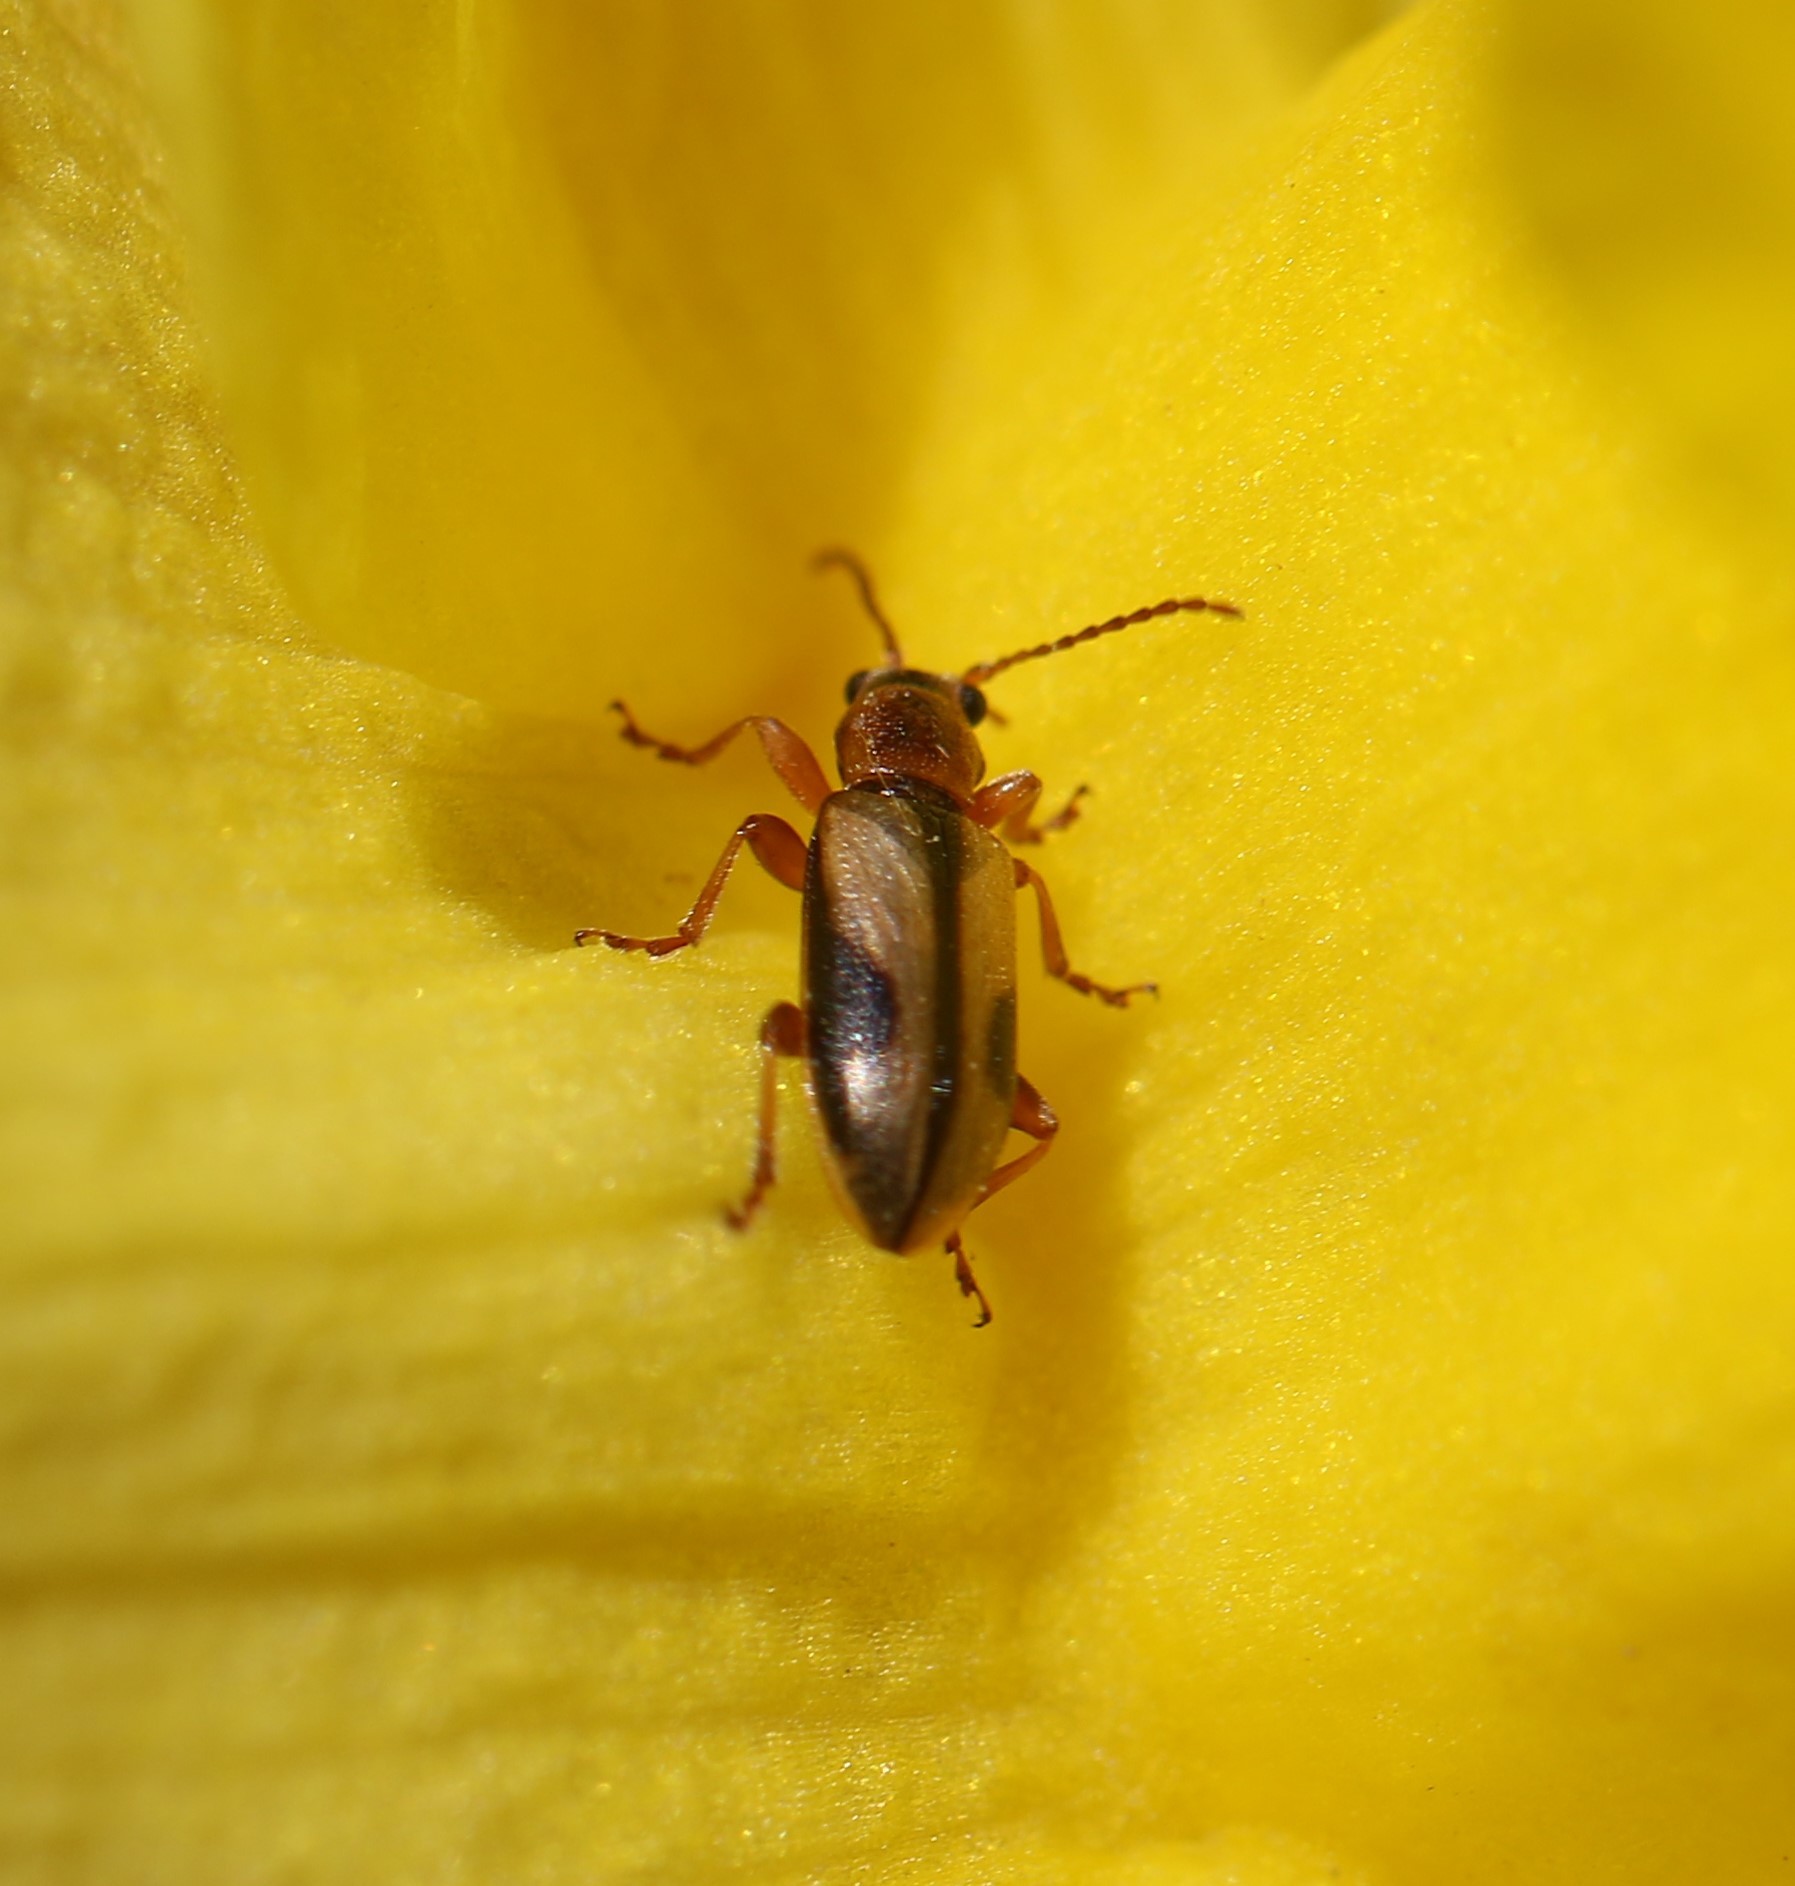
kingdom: Animalia
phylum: Arthropoda
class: Insecta
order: Coleoptera
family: Orsodacnidae
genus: Orsodacne
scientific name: Orsodacne atra
